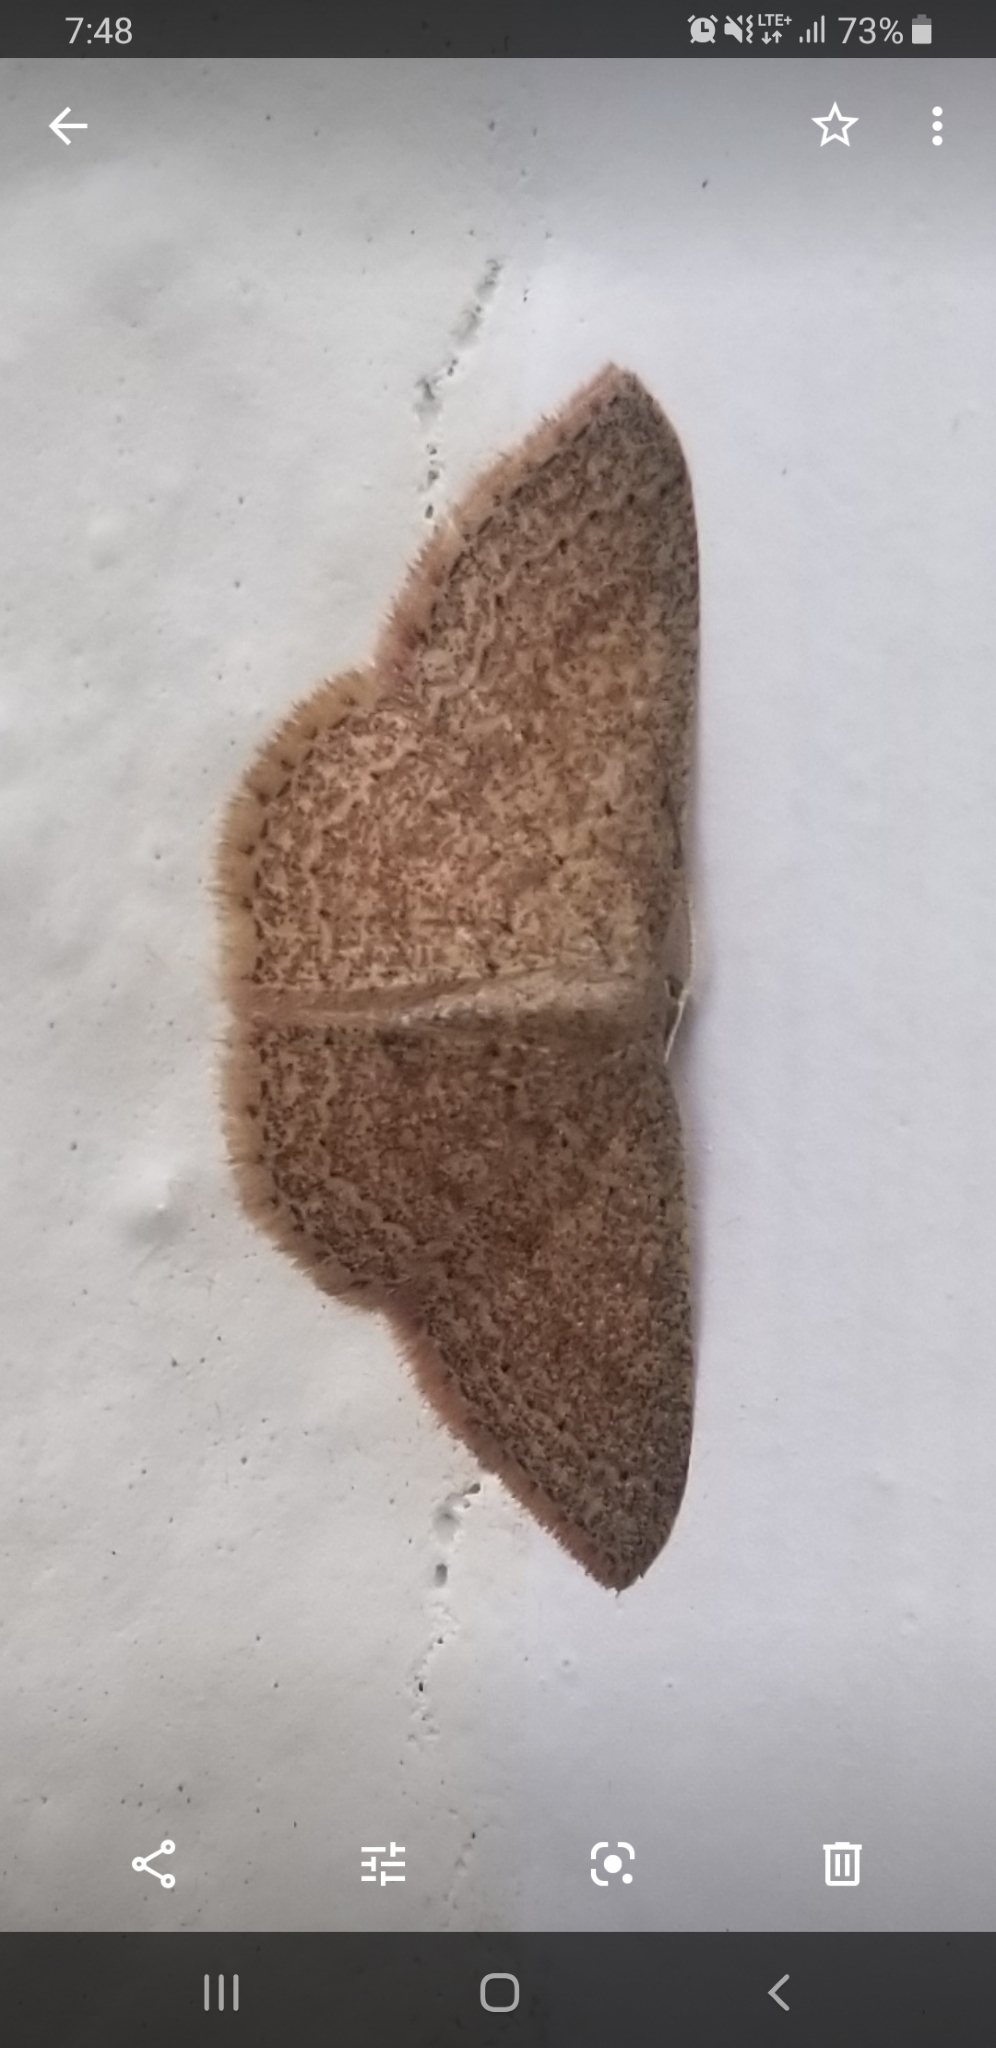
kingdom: Animalia
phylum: Arthropoda
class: Insecta
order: Lepidoptera
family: Geometridae
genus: Pleuroprucha
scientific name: Pleuroprucha insulsaria
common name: Common tan wave
